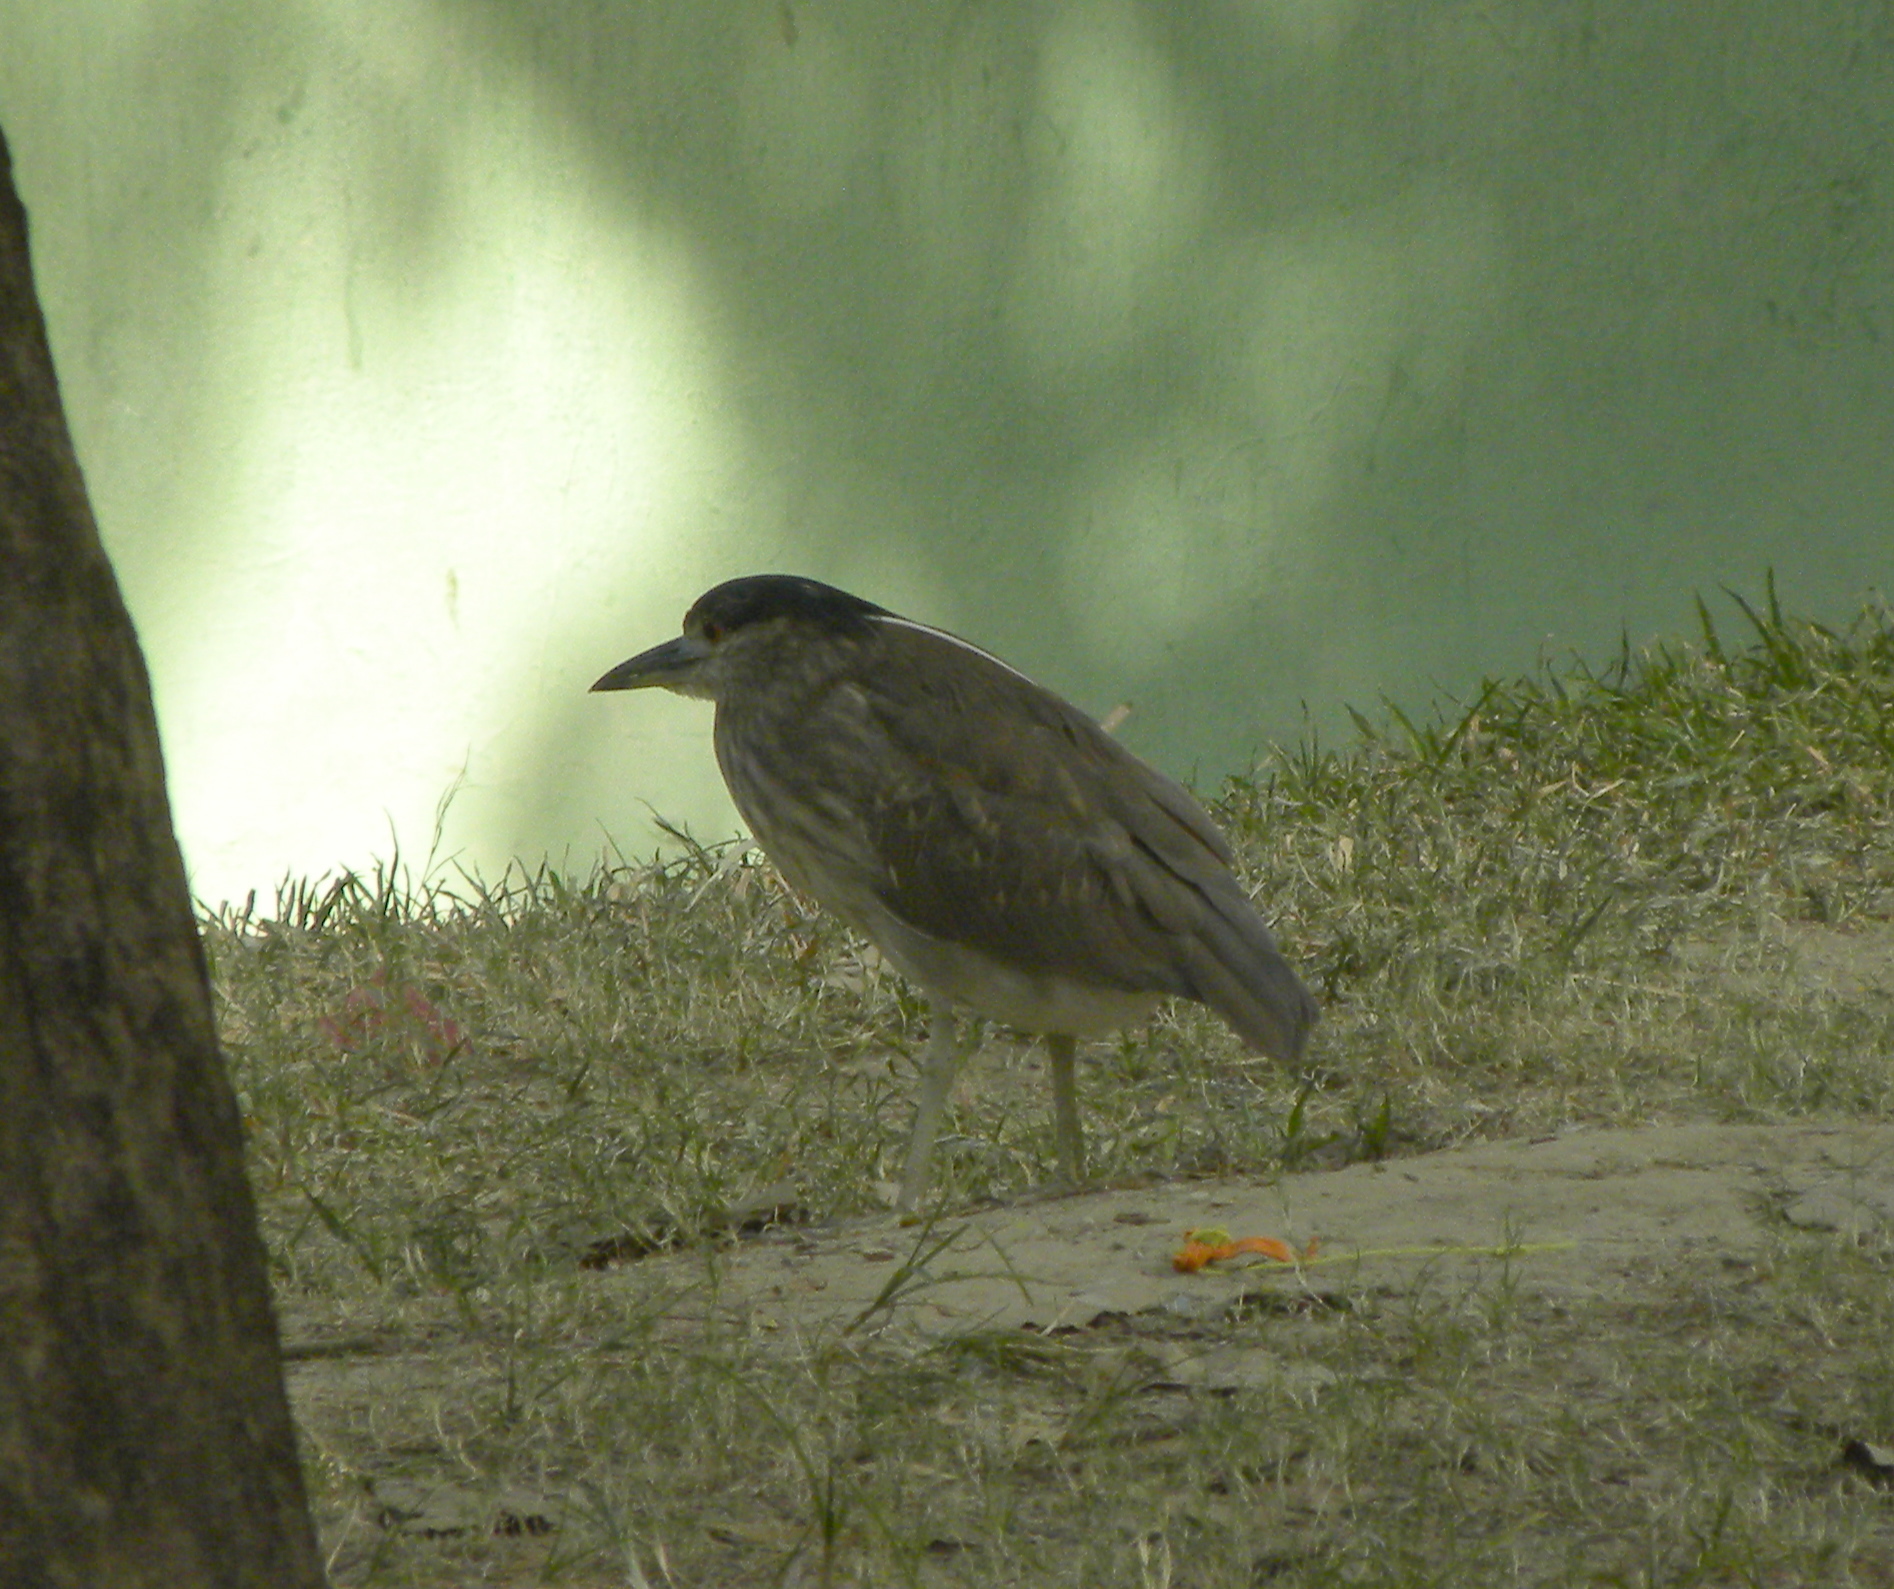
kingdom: Animalia
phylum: Chordata
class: Aves
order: Pelecaniformes
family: Ardeidae
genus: Nycticorax
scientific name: Nycticorax nycticorax
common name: Black-crowned night heron
